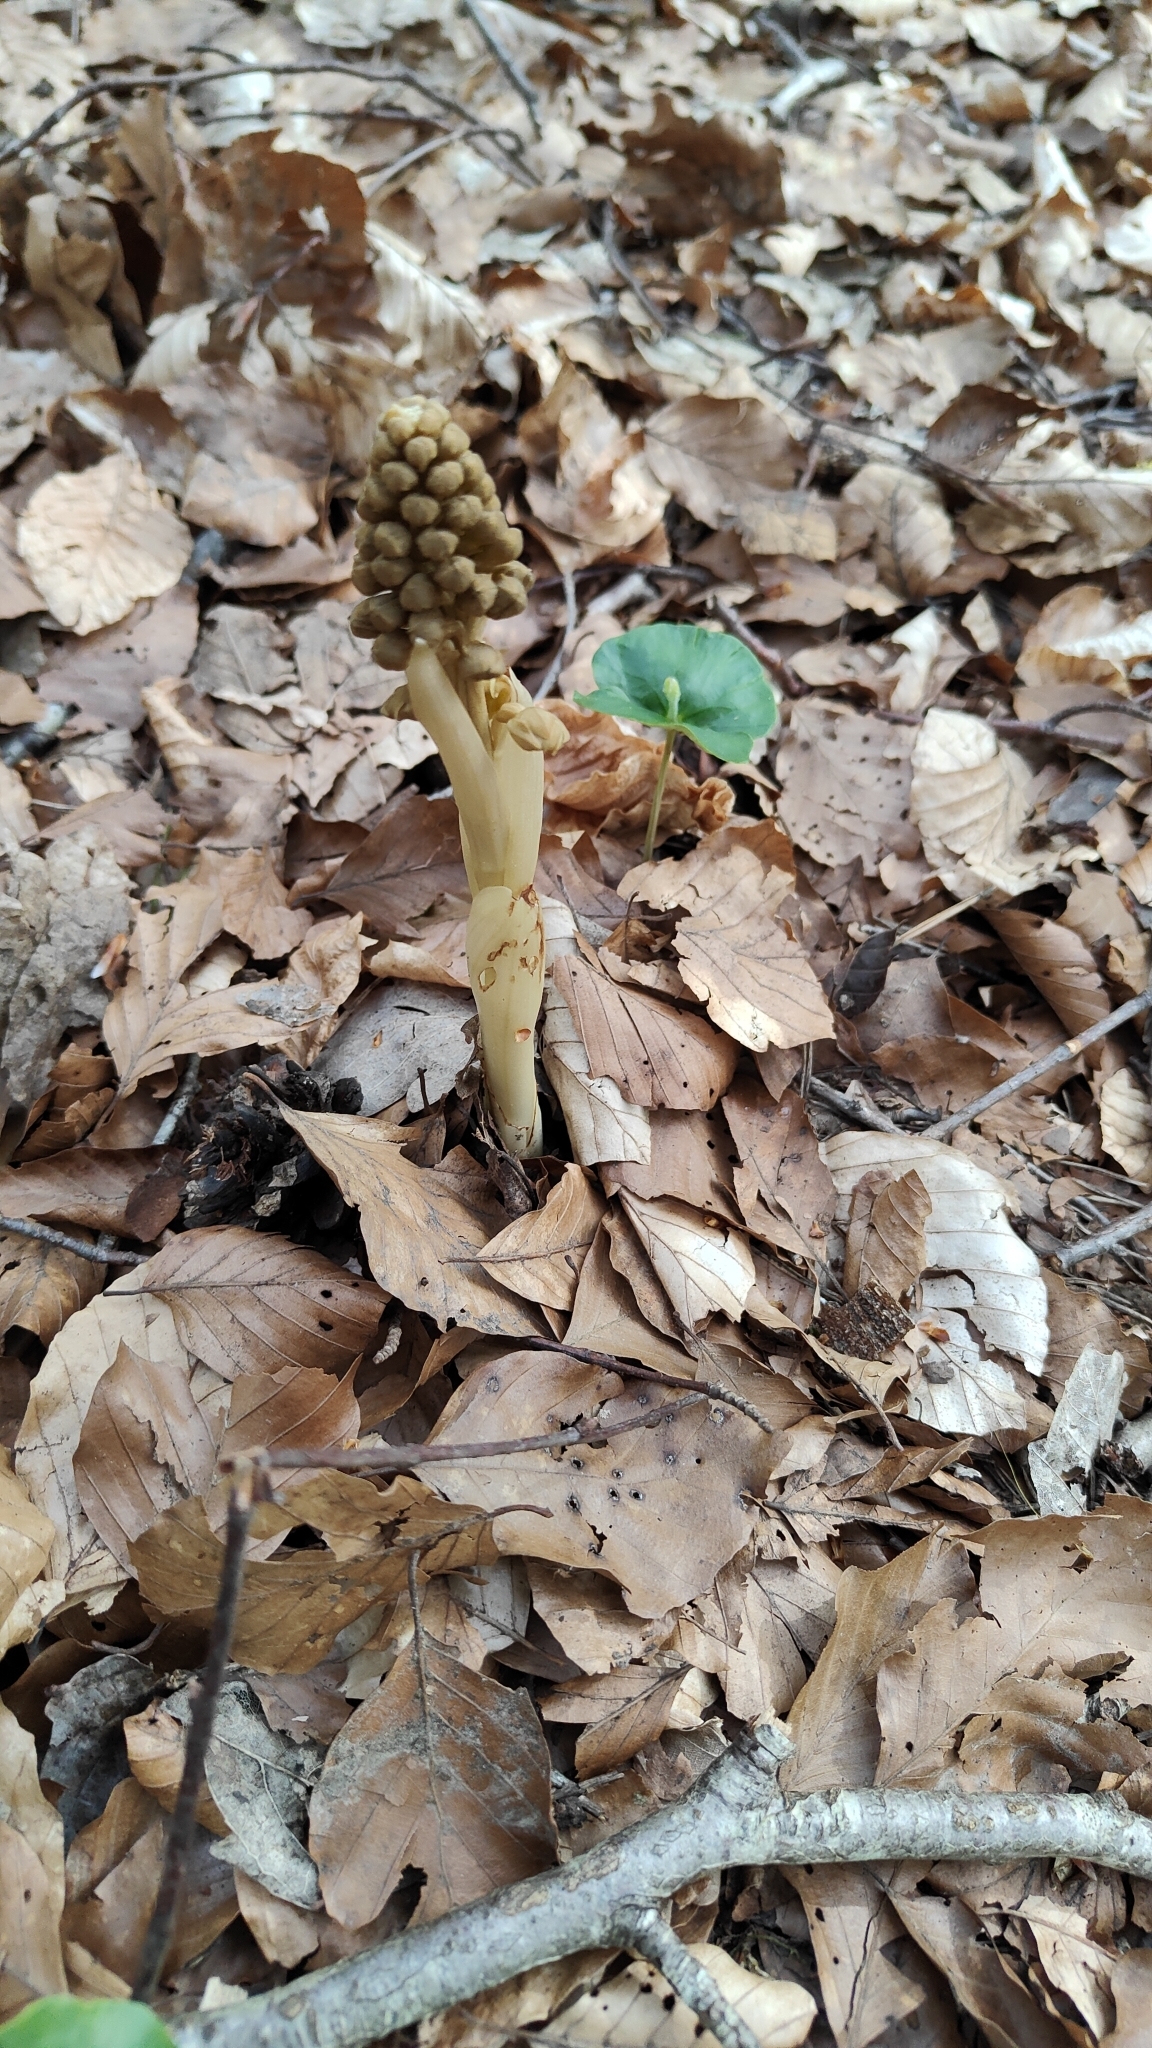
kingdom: Plantae
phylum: Tracheophyta
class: Liliopsida
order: Asparagales
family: Orchidaceae
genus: Neottia
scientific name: Neottia nidus-avis
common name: Bird's-nest orchid
